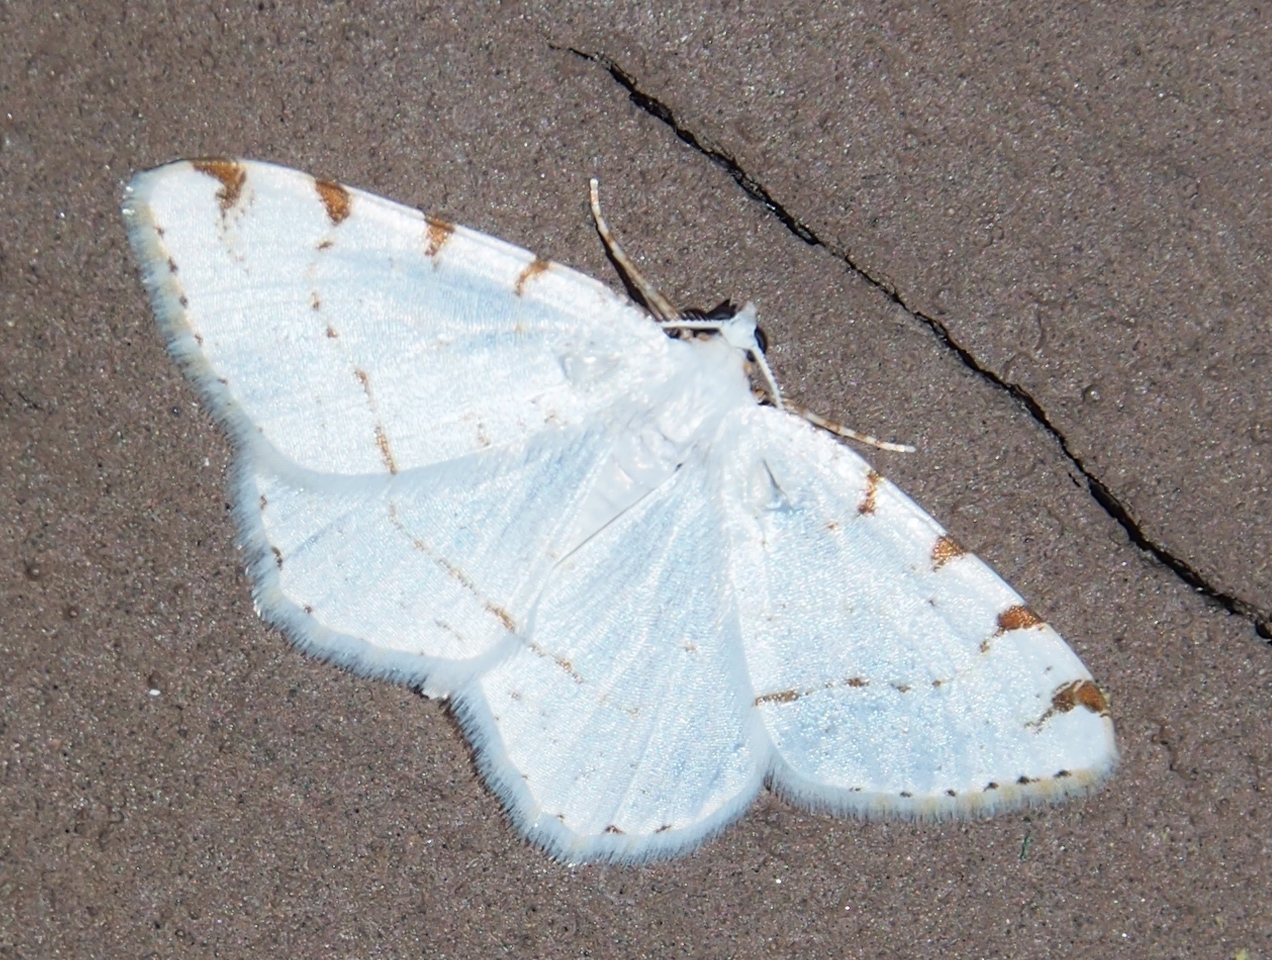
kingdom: Animalia
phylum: Arthropoda
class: Insecta
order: Lepidoptera
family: Geometridae
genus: Macaria
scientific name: Macaria pustularia
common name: Lesser maple spanworm moth
